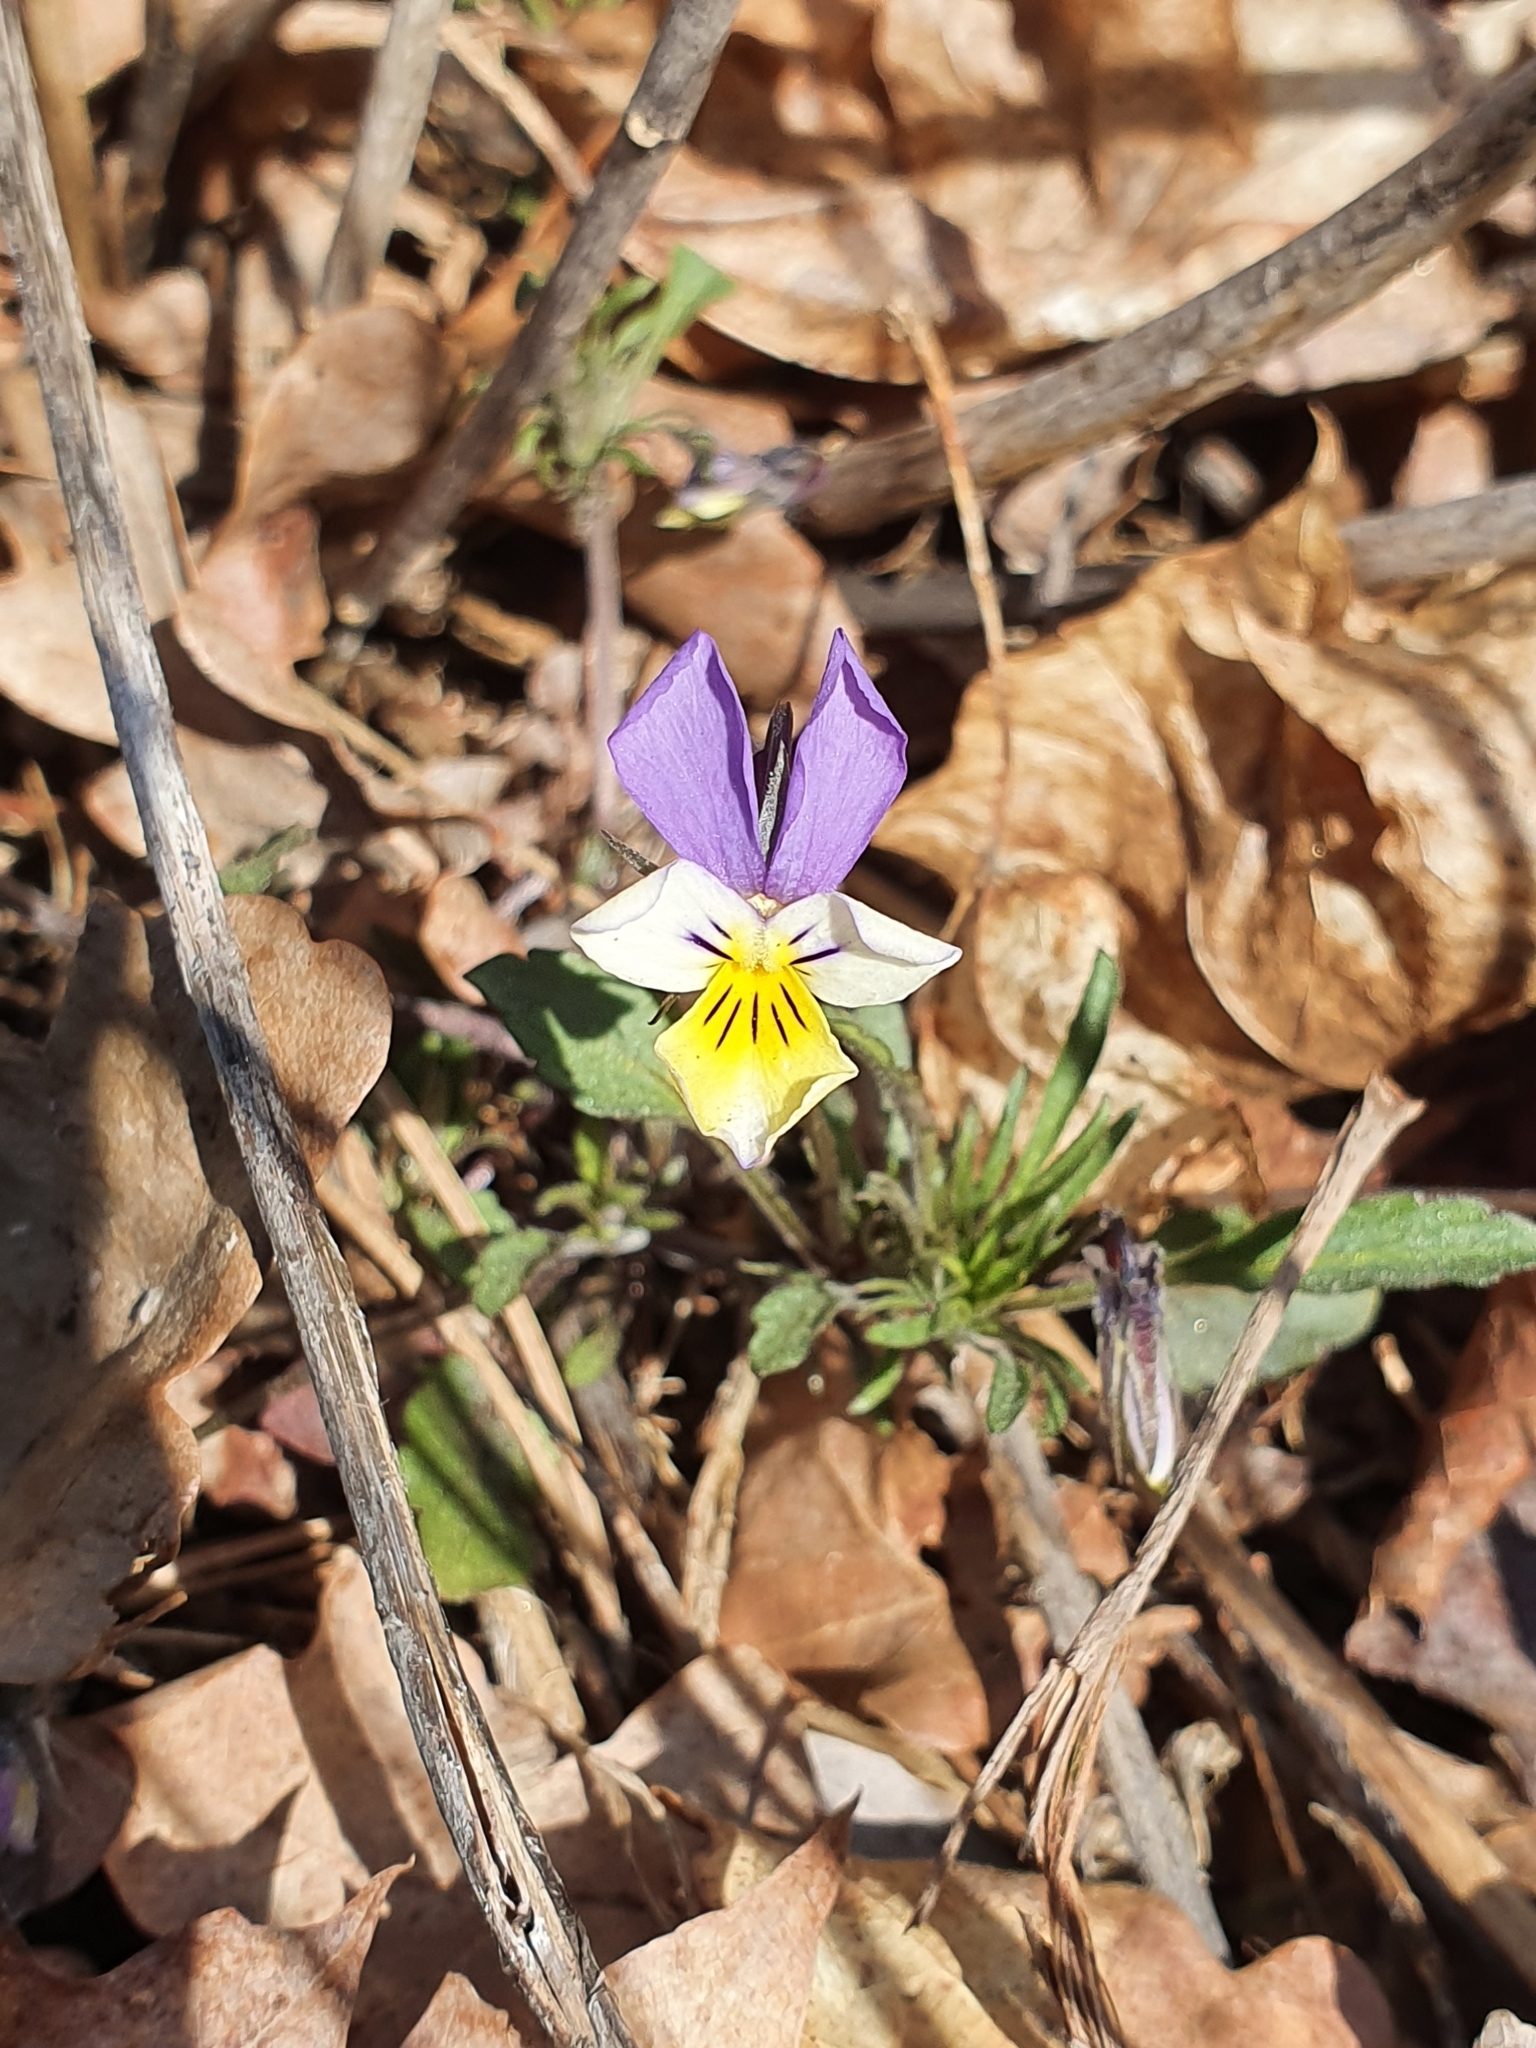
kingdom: Plantae
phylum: Tracheophyta
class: Magnoliopsida
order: Malpighiales
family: Violaceae
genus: Viola
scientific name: Viola tricolor
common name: Pansy
